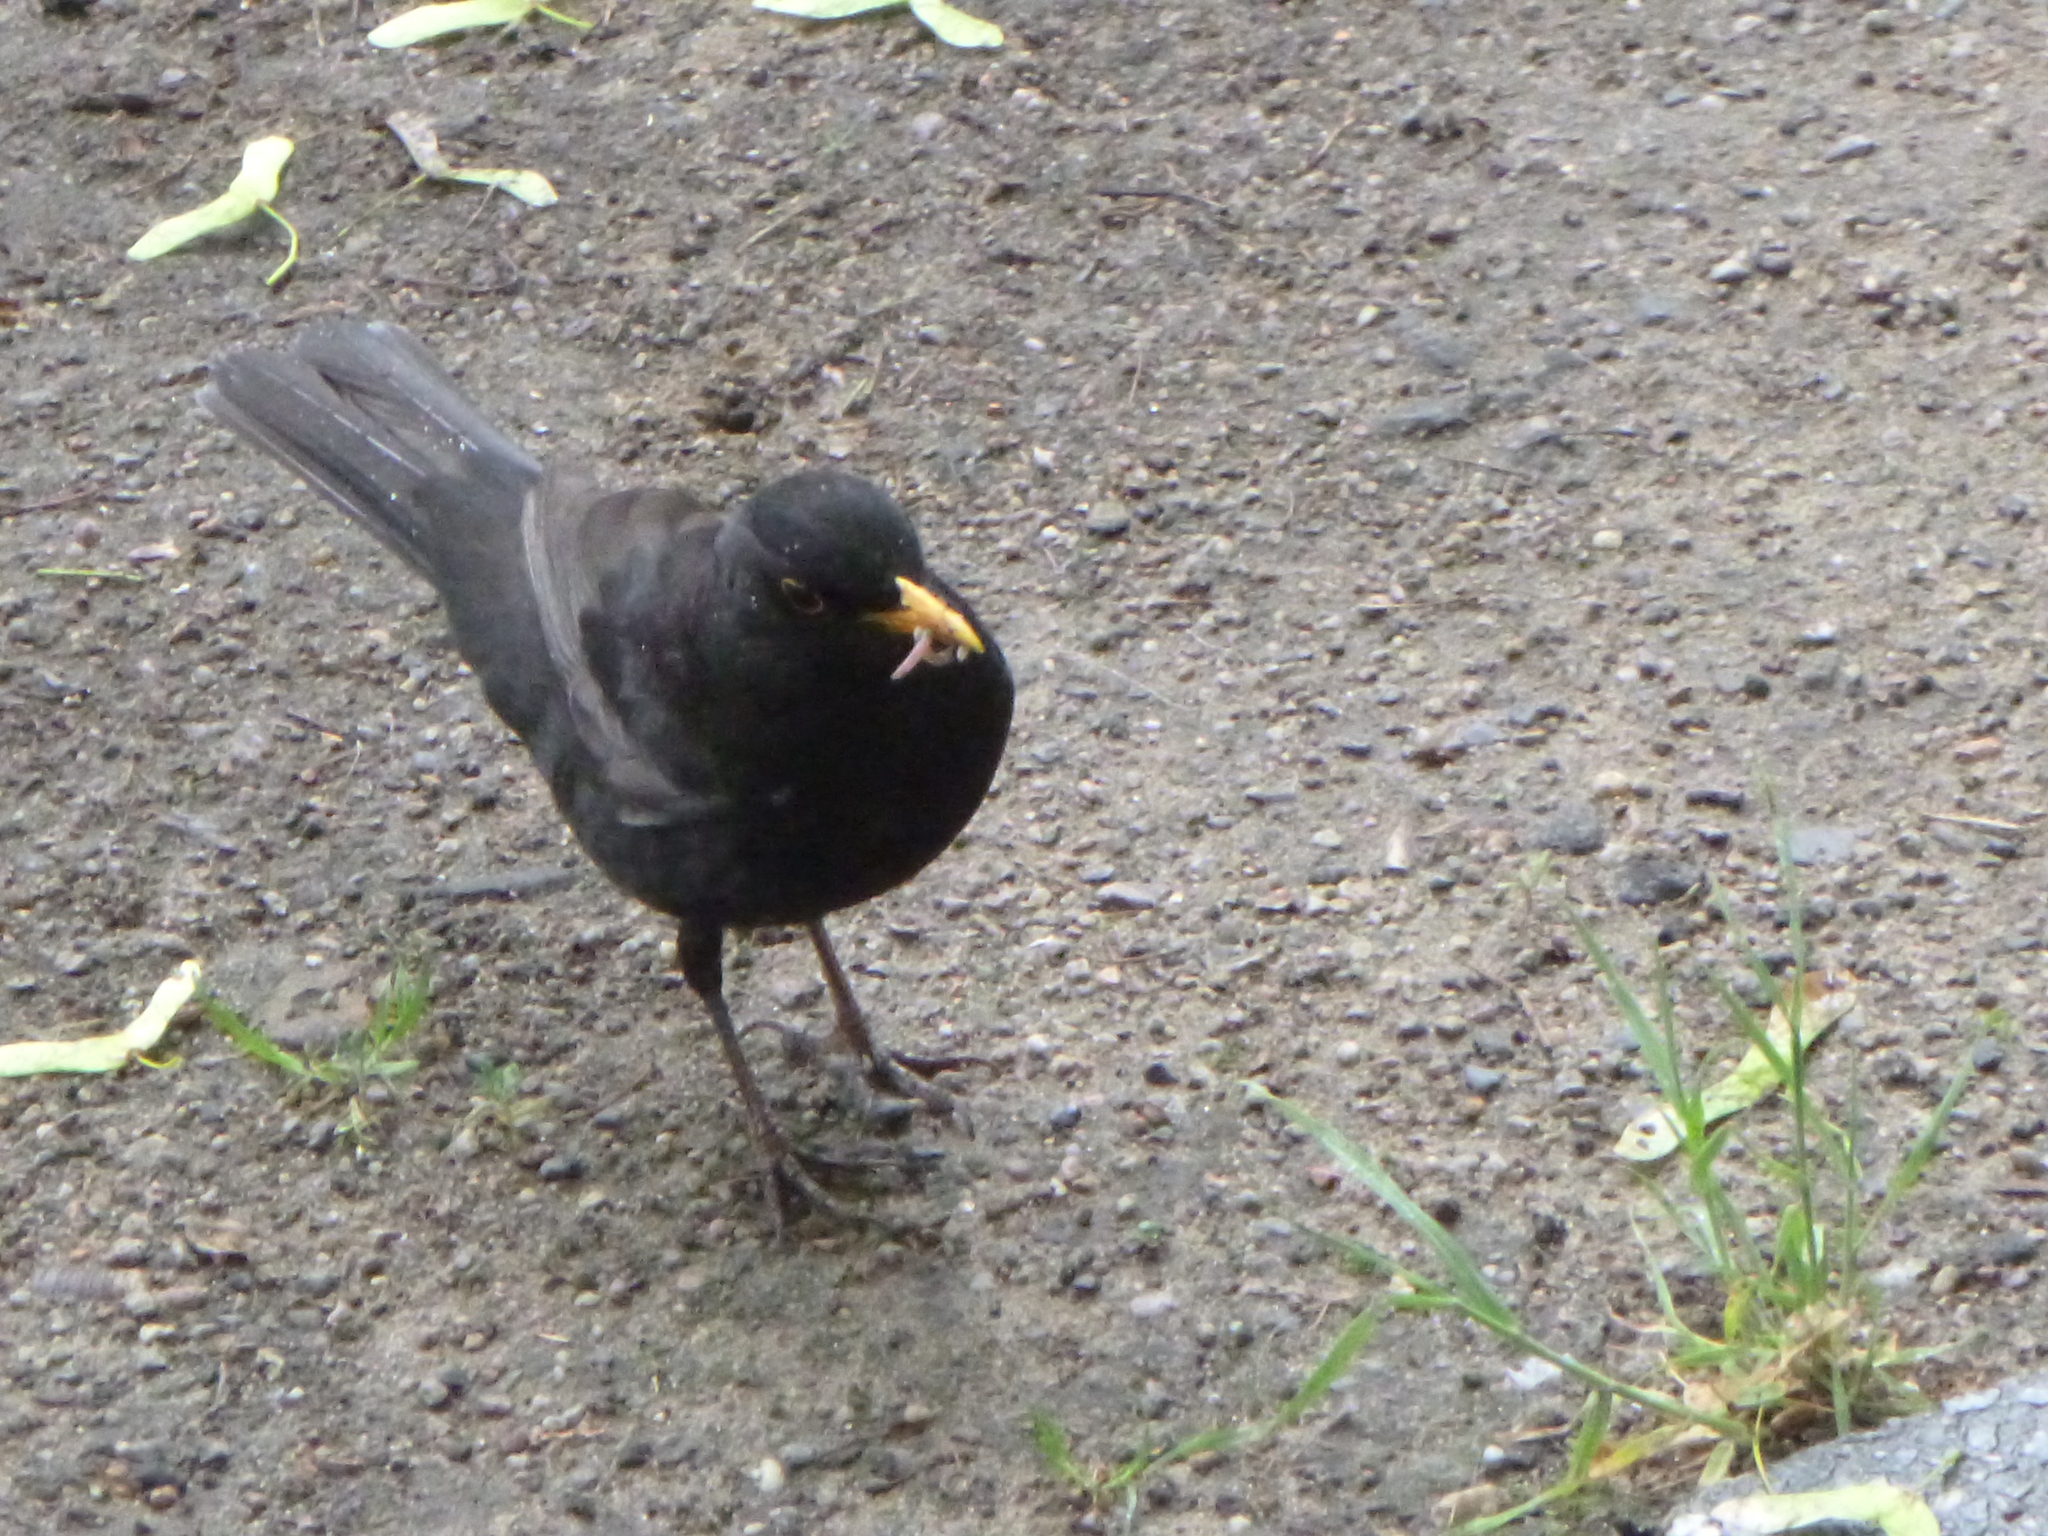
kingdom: Animalia
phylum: Chordata
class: Aves
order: Passeriformes
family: Turdidae
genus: Turdus
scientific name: Turdus merula
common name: Common blackbird
